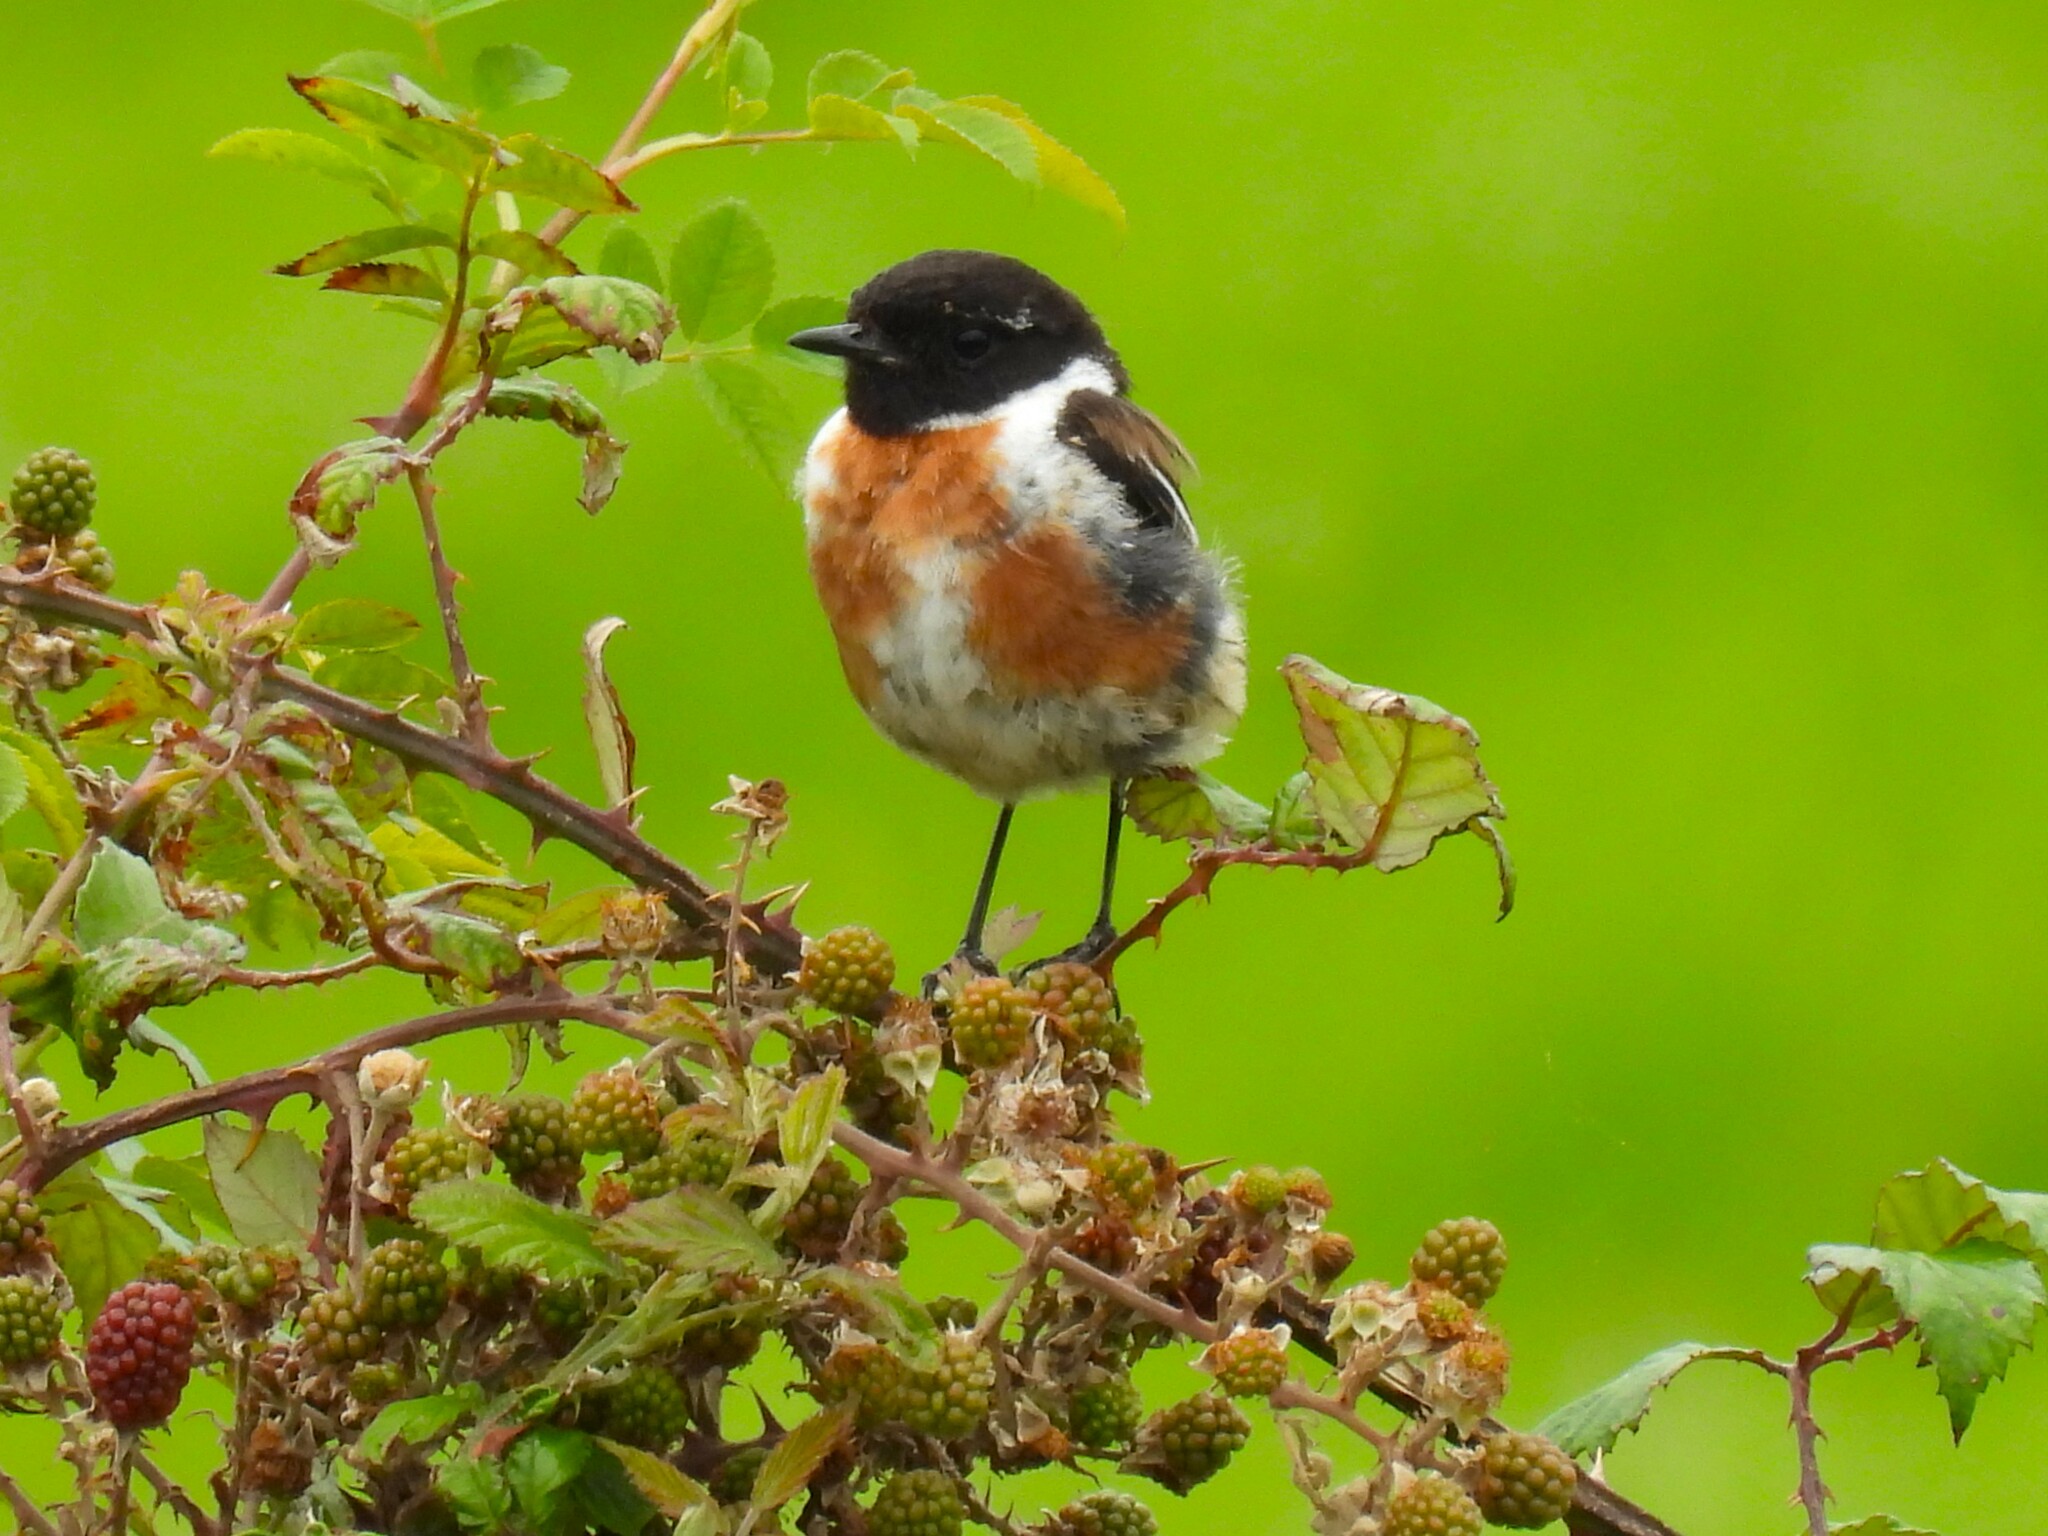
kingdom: Animalia
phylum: Chordata
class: Aves
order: Passeriformes
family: Muscicapidae
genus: Saxicola
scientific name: Saxicola rubicola
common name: European stonechat
